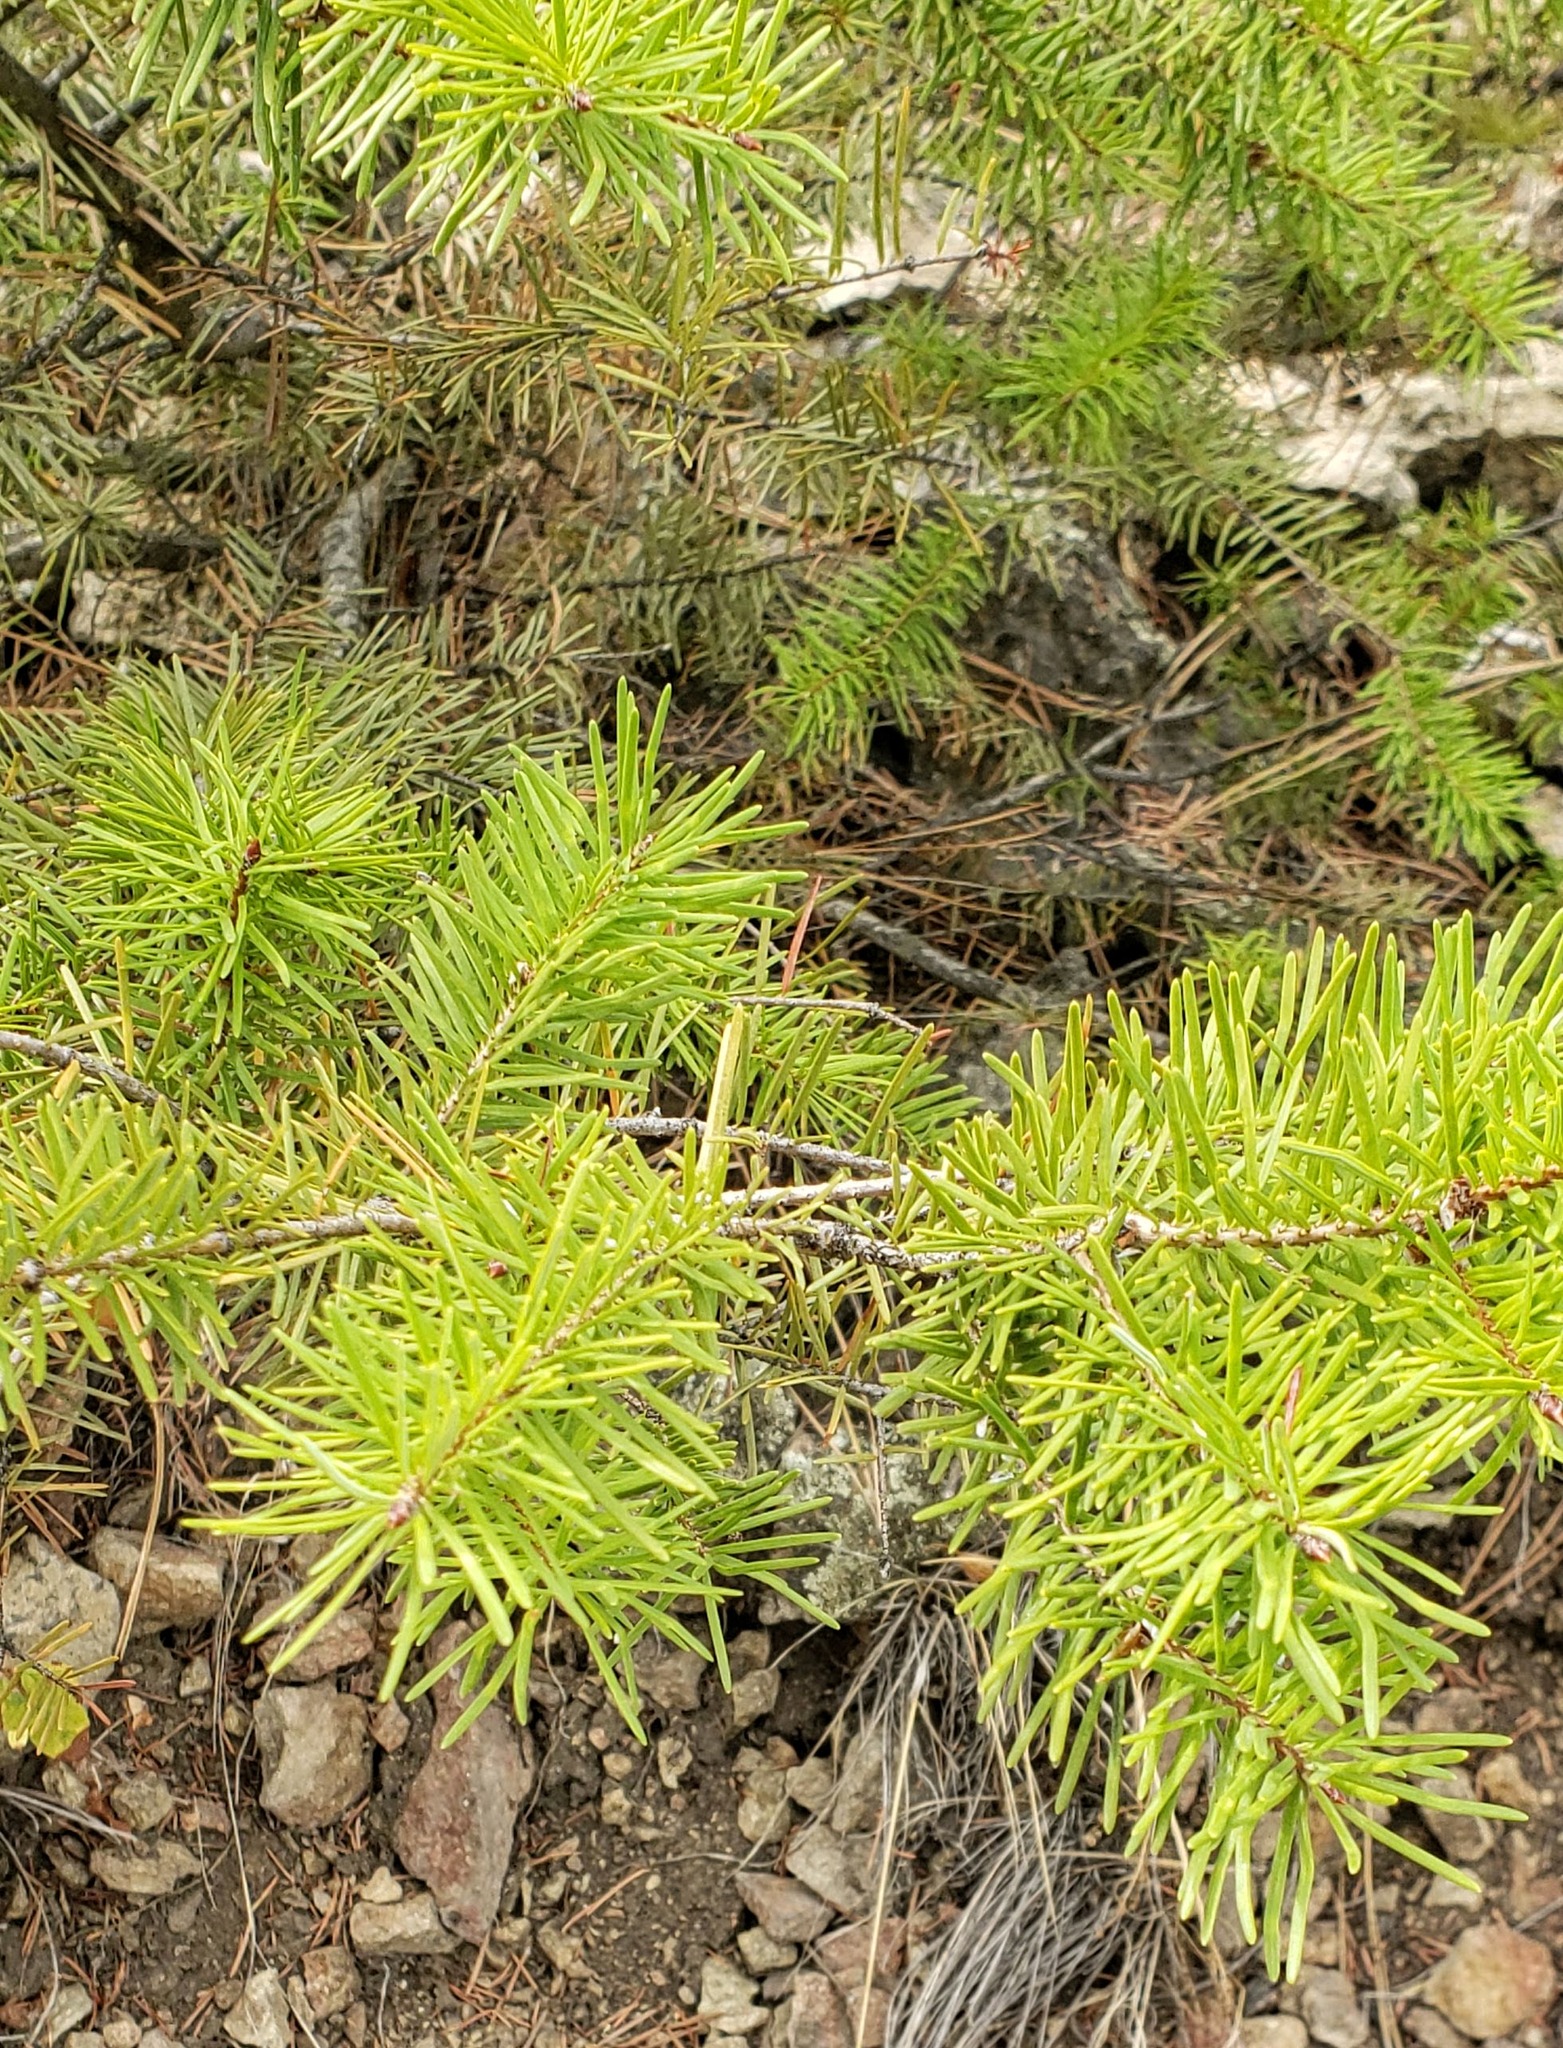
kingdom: Plantae
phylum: Tracheophyta
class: Pinopsida
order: Pinales
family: Pinaceae
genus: Pseudotsuga
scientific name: Pseudotsuga menziesii
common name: Douglas fir
